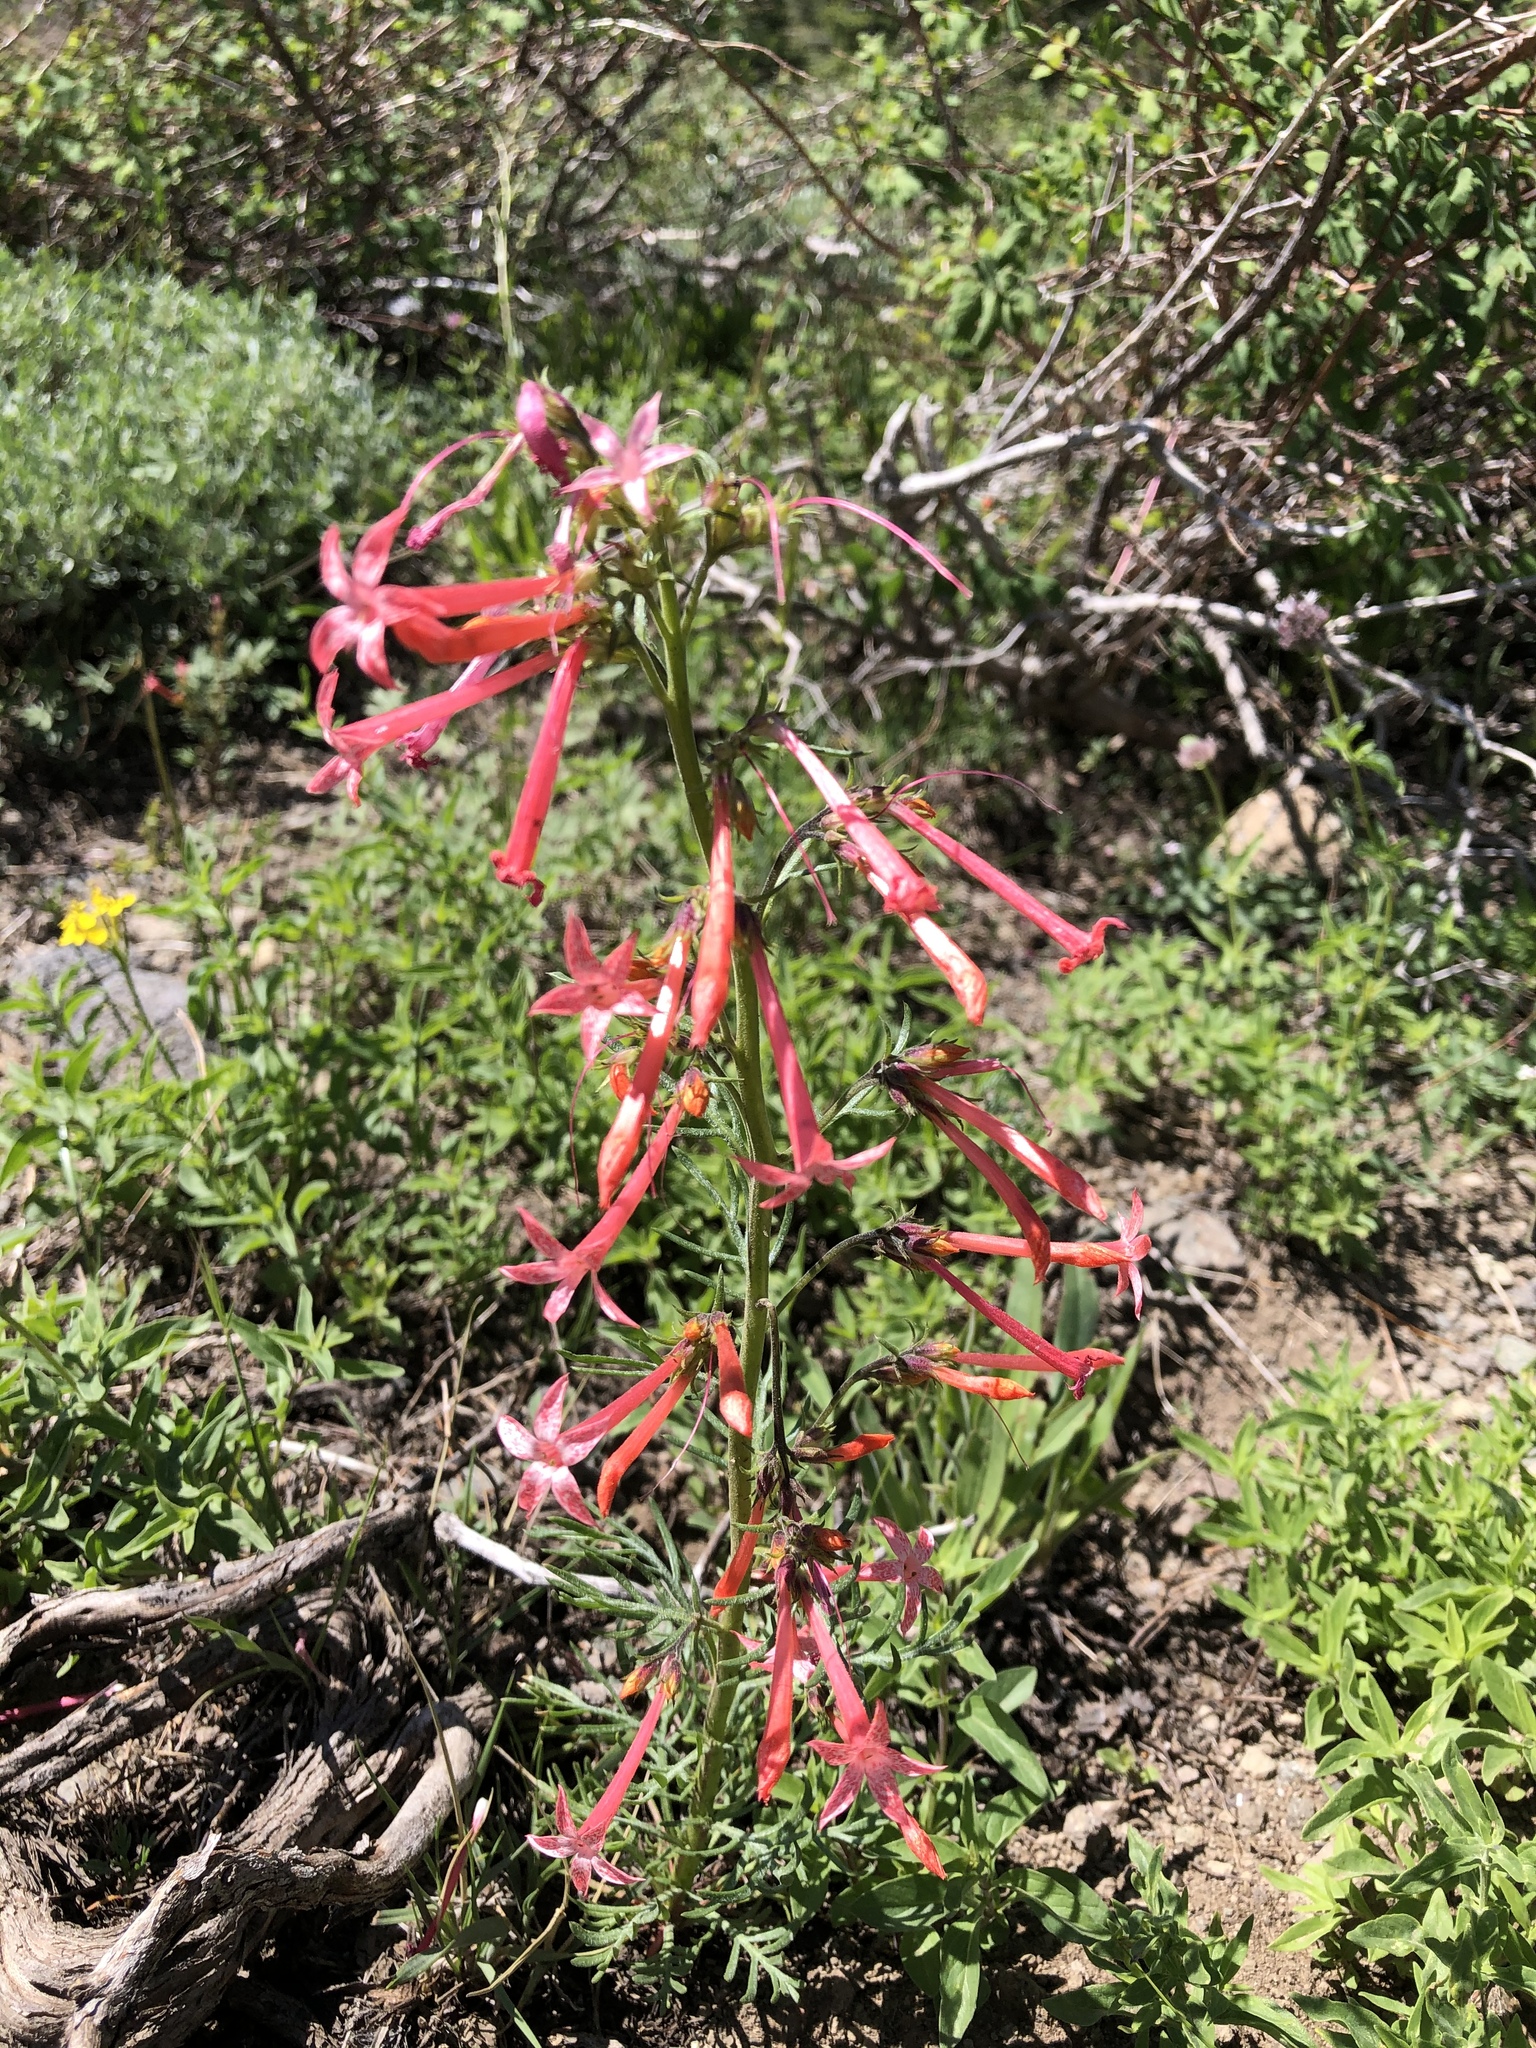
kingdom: Plantae
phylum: Tracheophyta
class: Magnoliopsida
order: Ericales
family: Polemoniaceae
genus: Ipomopsis
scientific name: Ipomopsis aggregata
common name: Scarlet gilia
